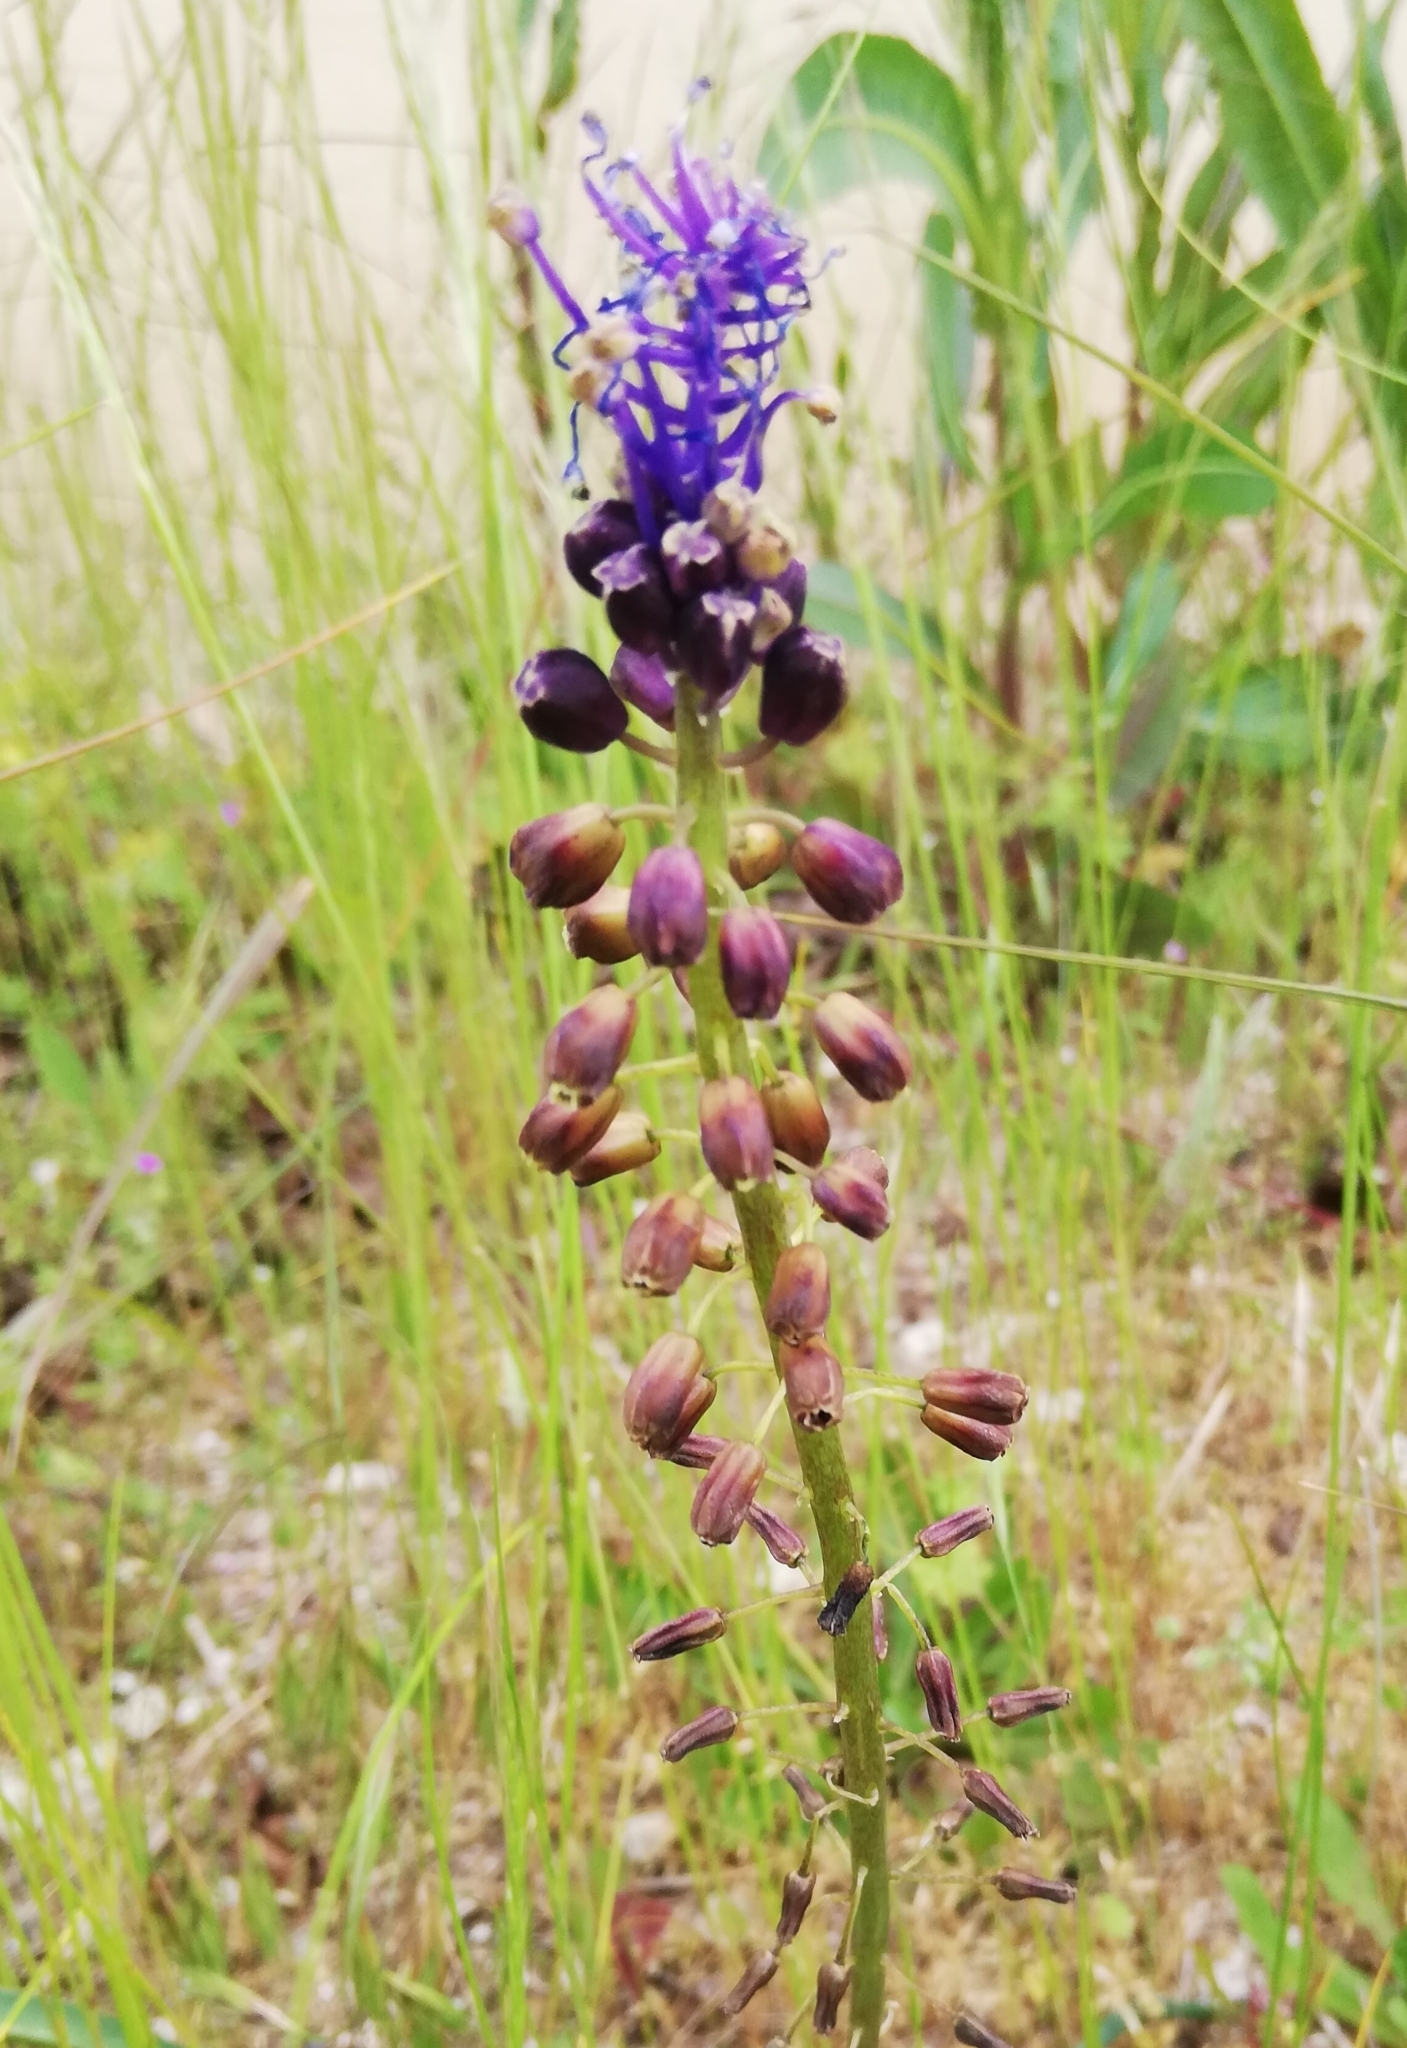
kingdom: Plantae
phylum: Tracheophyta
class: Liliopsida
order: Asparagales
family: Asparagaceae
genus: Muscari
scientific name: Muscari comosum
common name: Tassel hyacinth
